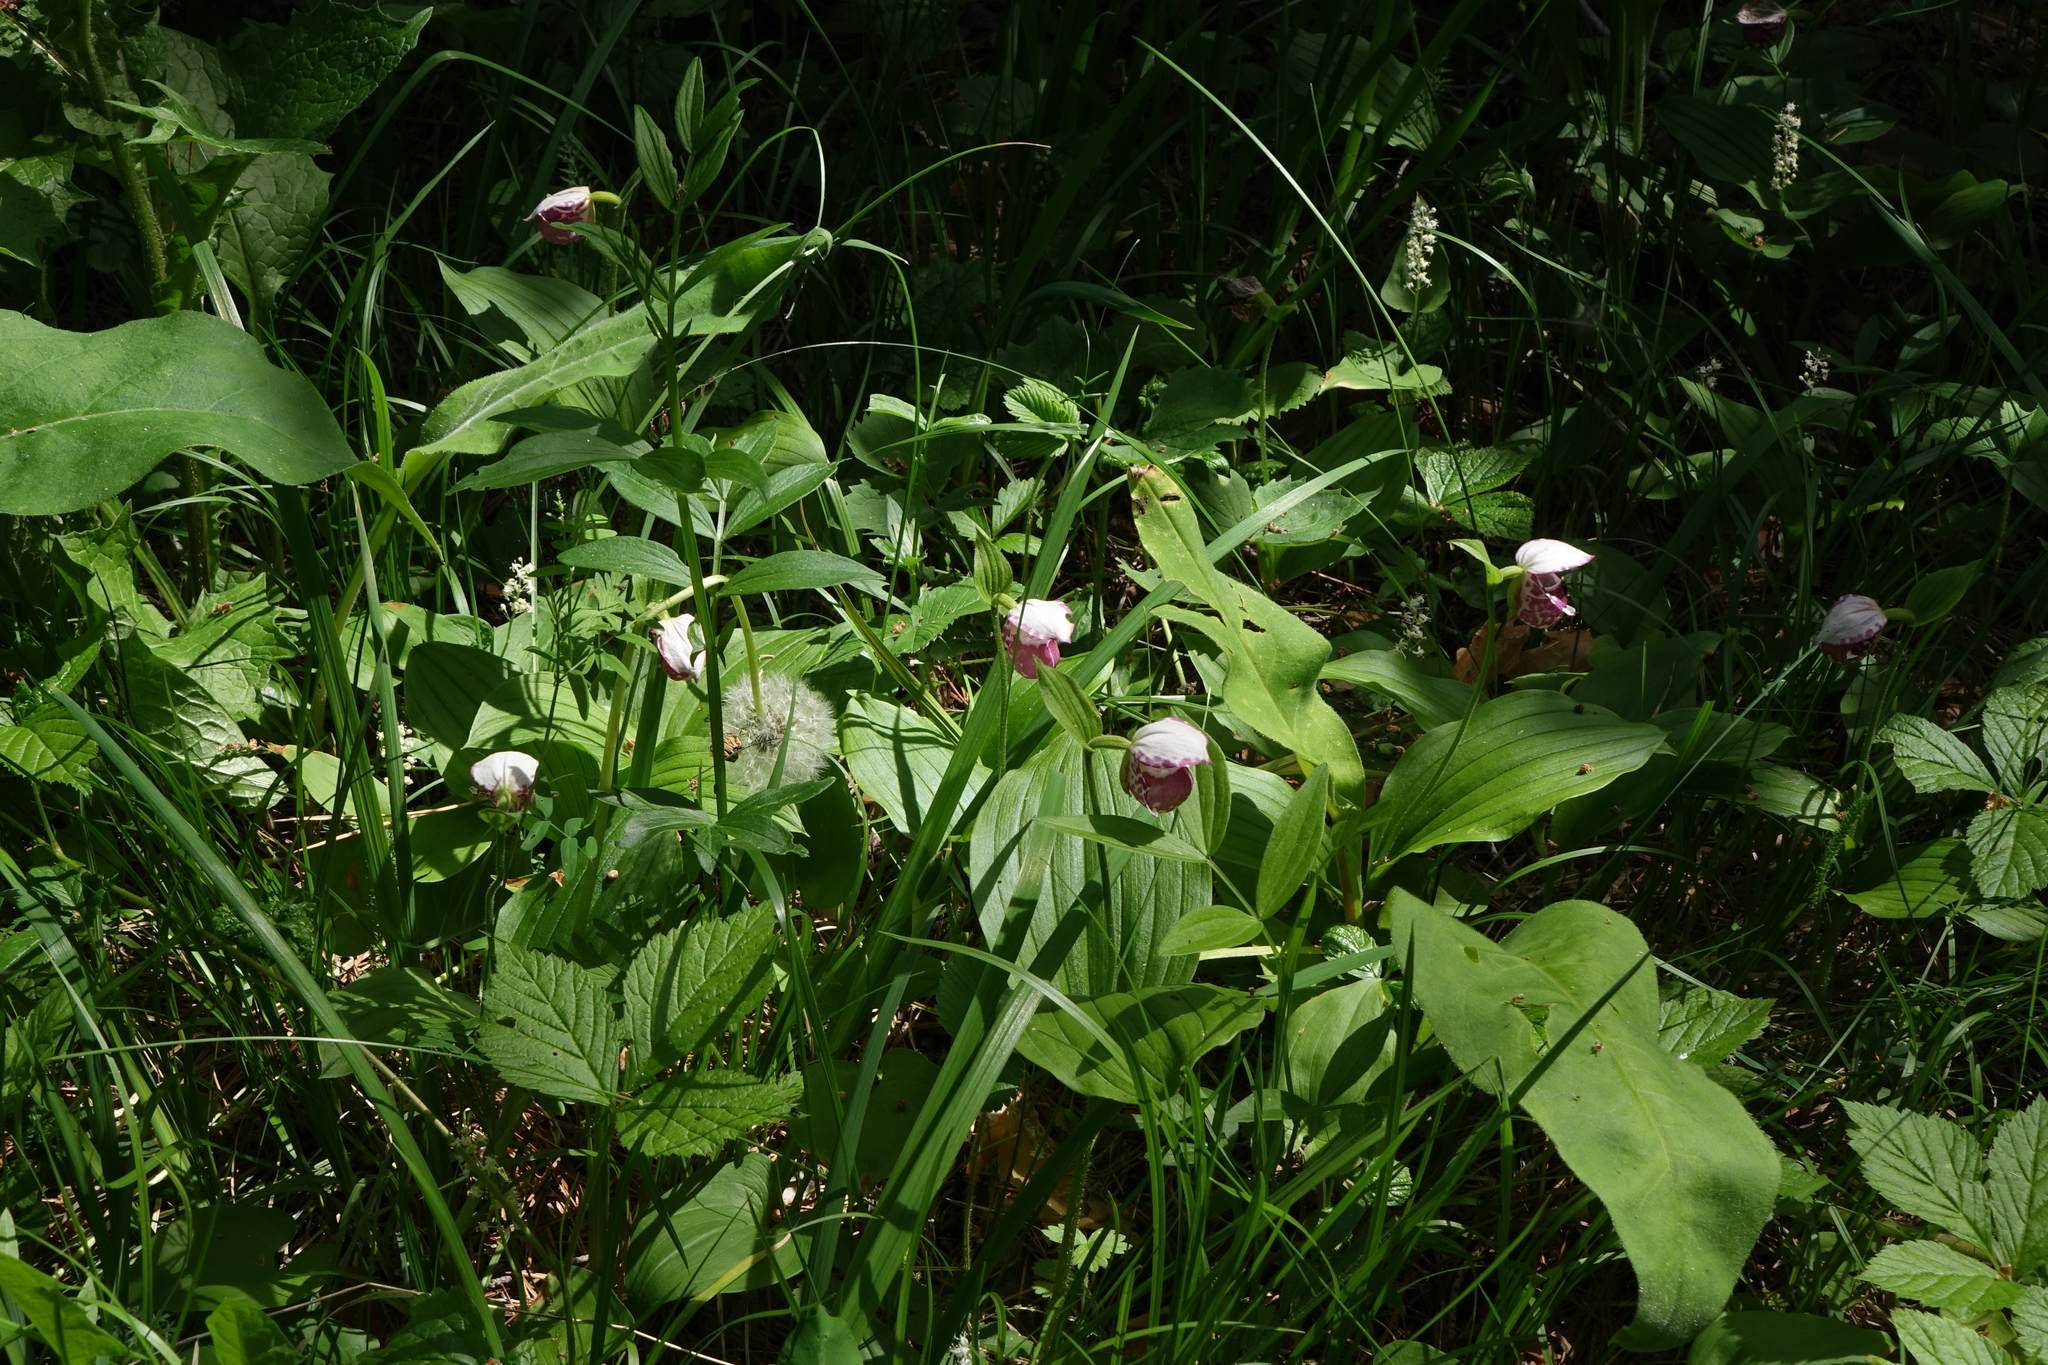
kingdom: Plantae
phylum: Tracheophyta
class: Liliopsida
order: Asparagales
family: Orchidaceae
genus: Cypripedium
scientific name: Cypripedium guttatum
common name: Pink lady slipper
